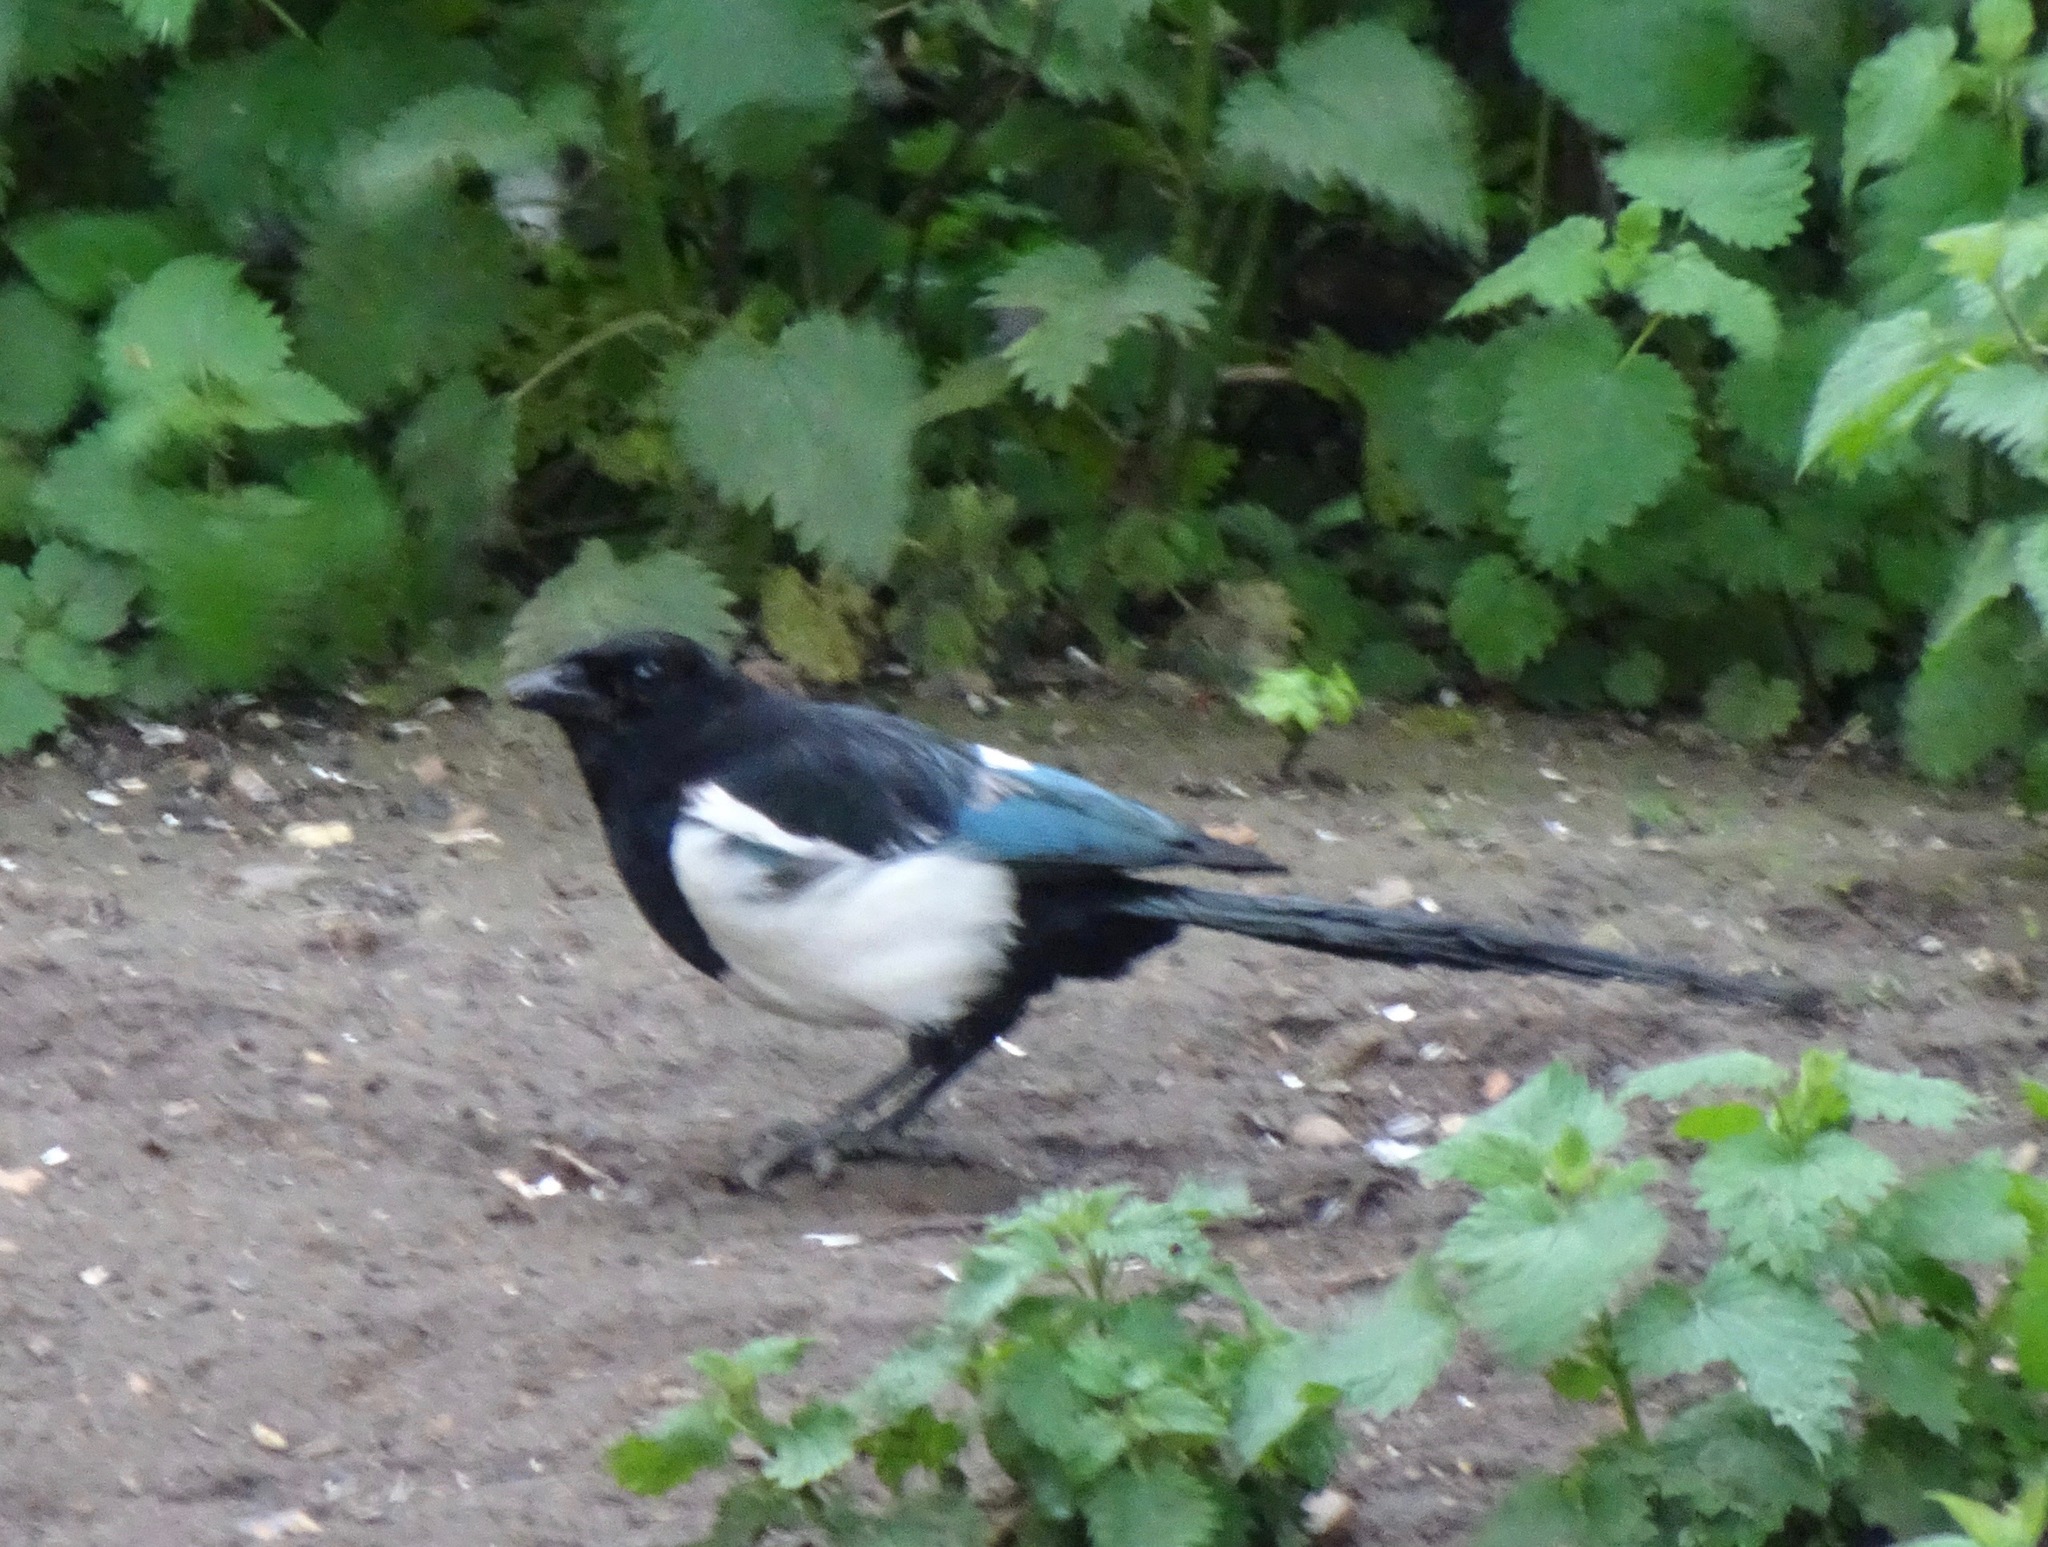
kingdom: Animalia
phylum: Chordata
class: Aves
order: Passeriformes
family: Corvidae
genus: Pica
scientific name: Pica pica
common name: Eurasian magpie
